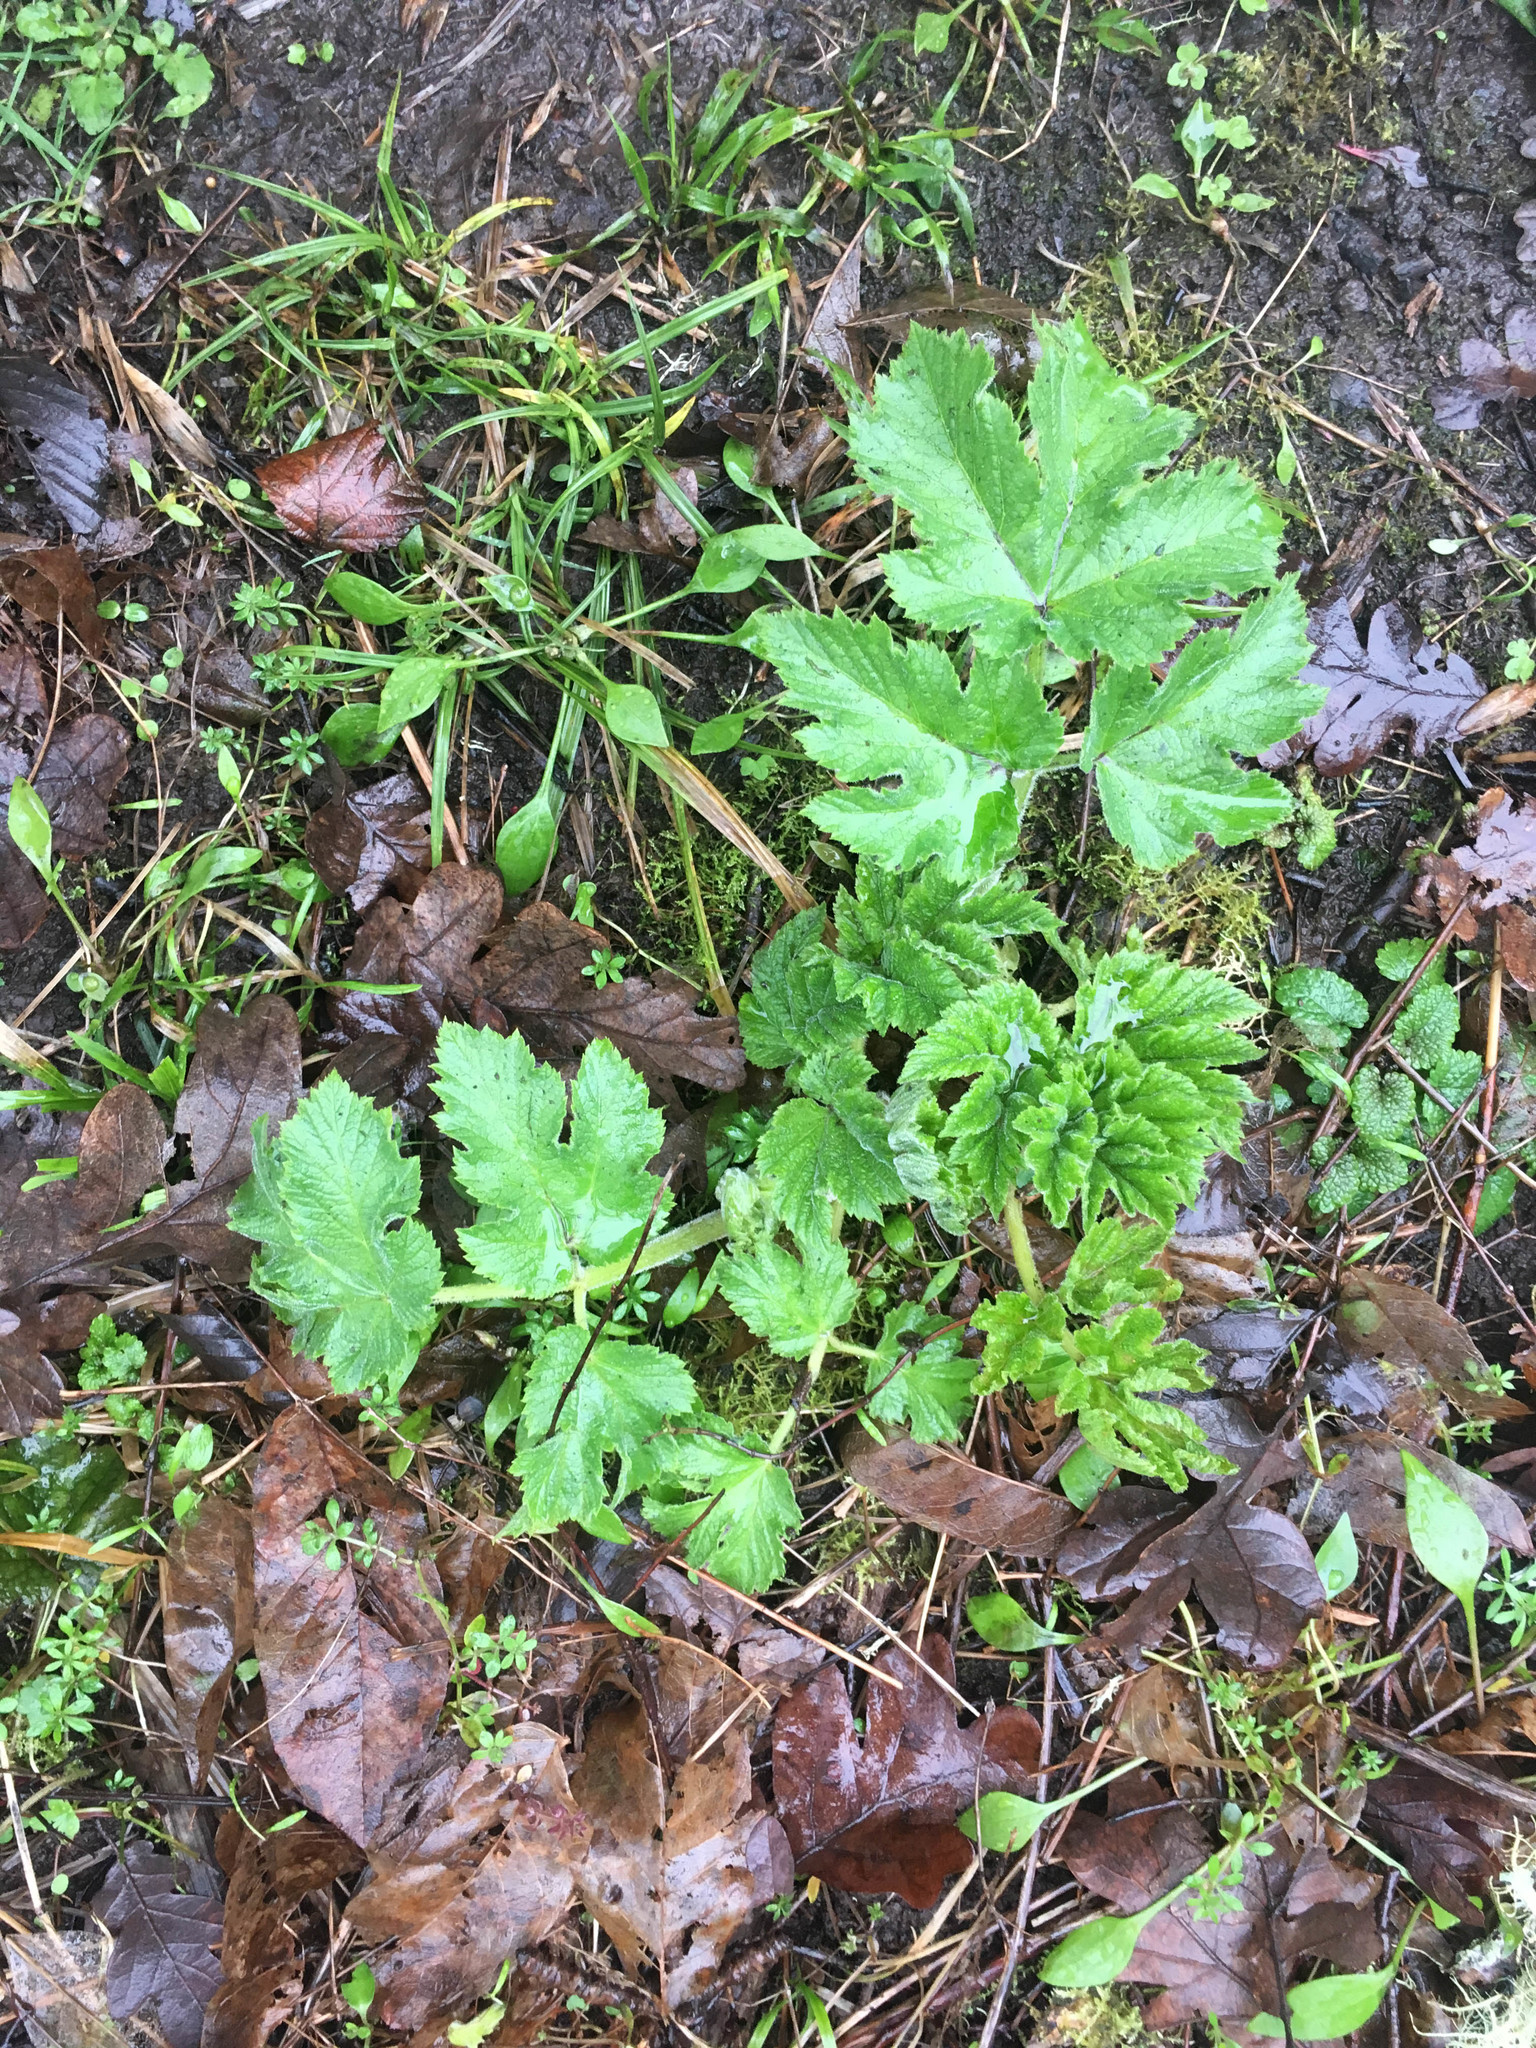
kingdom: Plantae
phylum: Tracheophyta
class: Magnoliopsida
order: Apiales
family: Apiaceae
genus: Heracleum
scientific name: Heracleum maximum
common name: American cow parsnip
